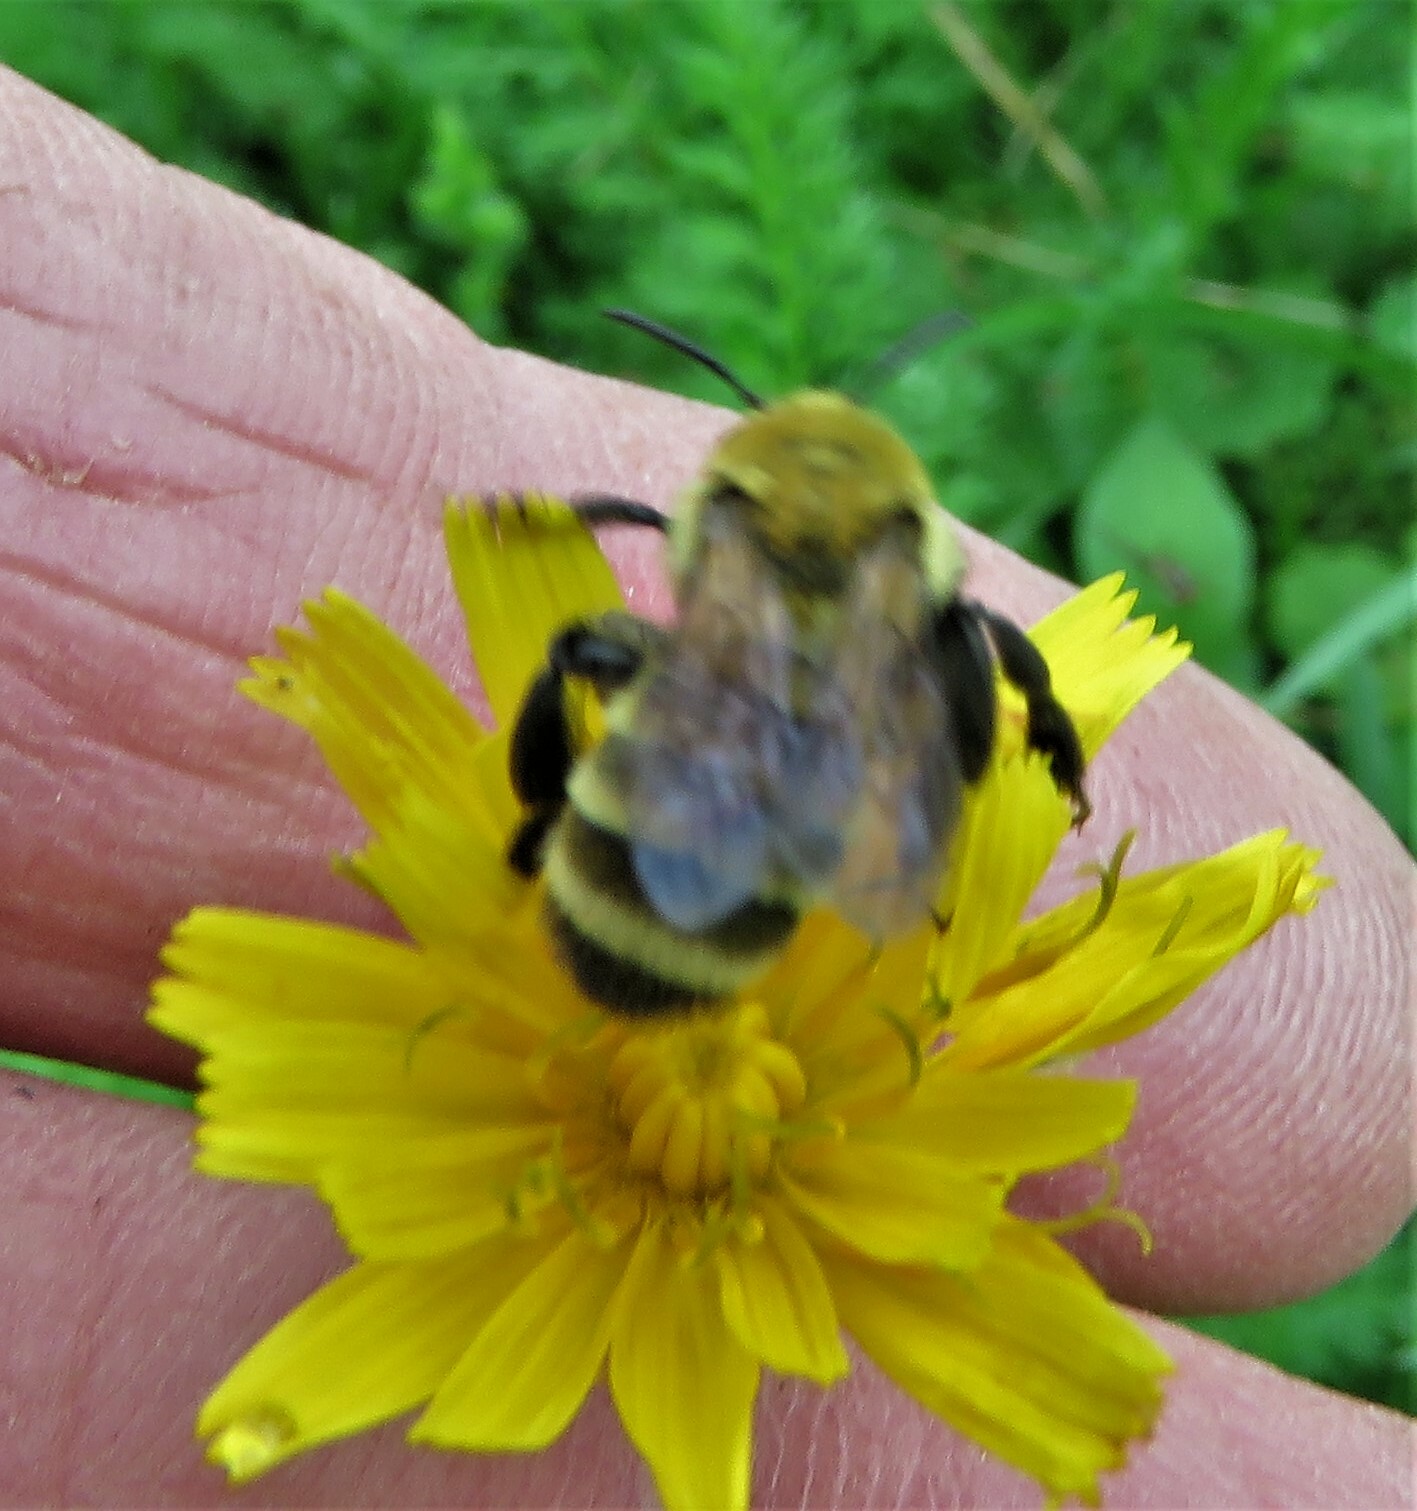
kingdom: Animalia
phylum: Arthropoda
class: Insecta
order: Hymenoptera
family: Andrenidae
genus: Andrena
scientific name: Andrena hirticincta
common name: Hairy-banded mining bee
